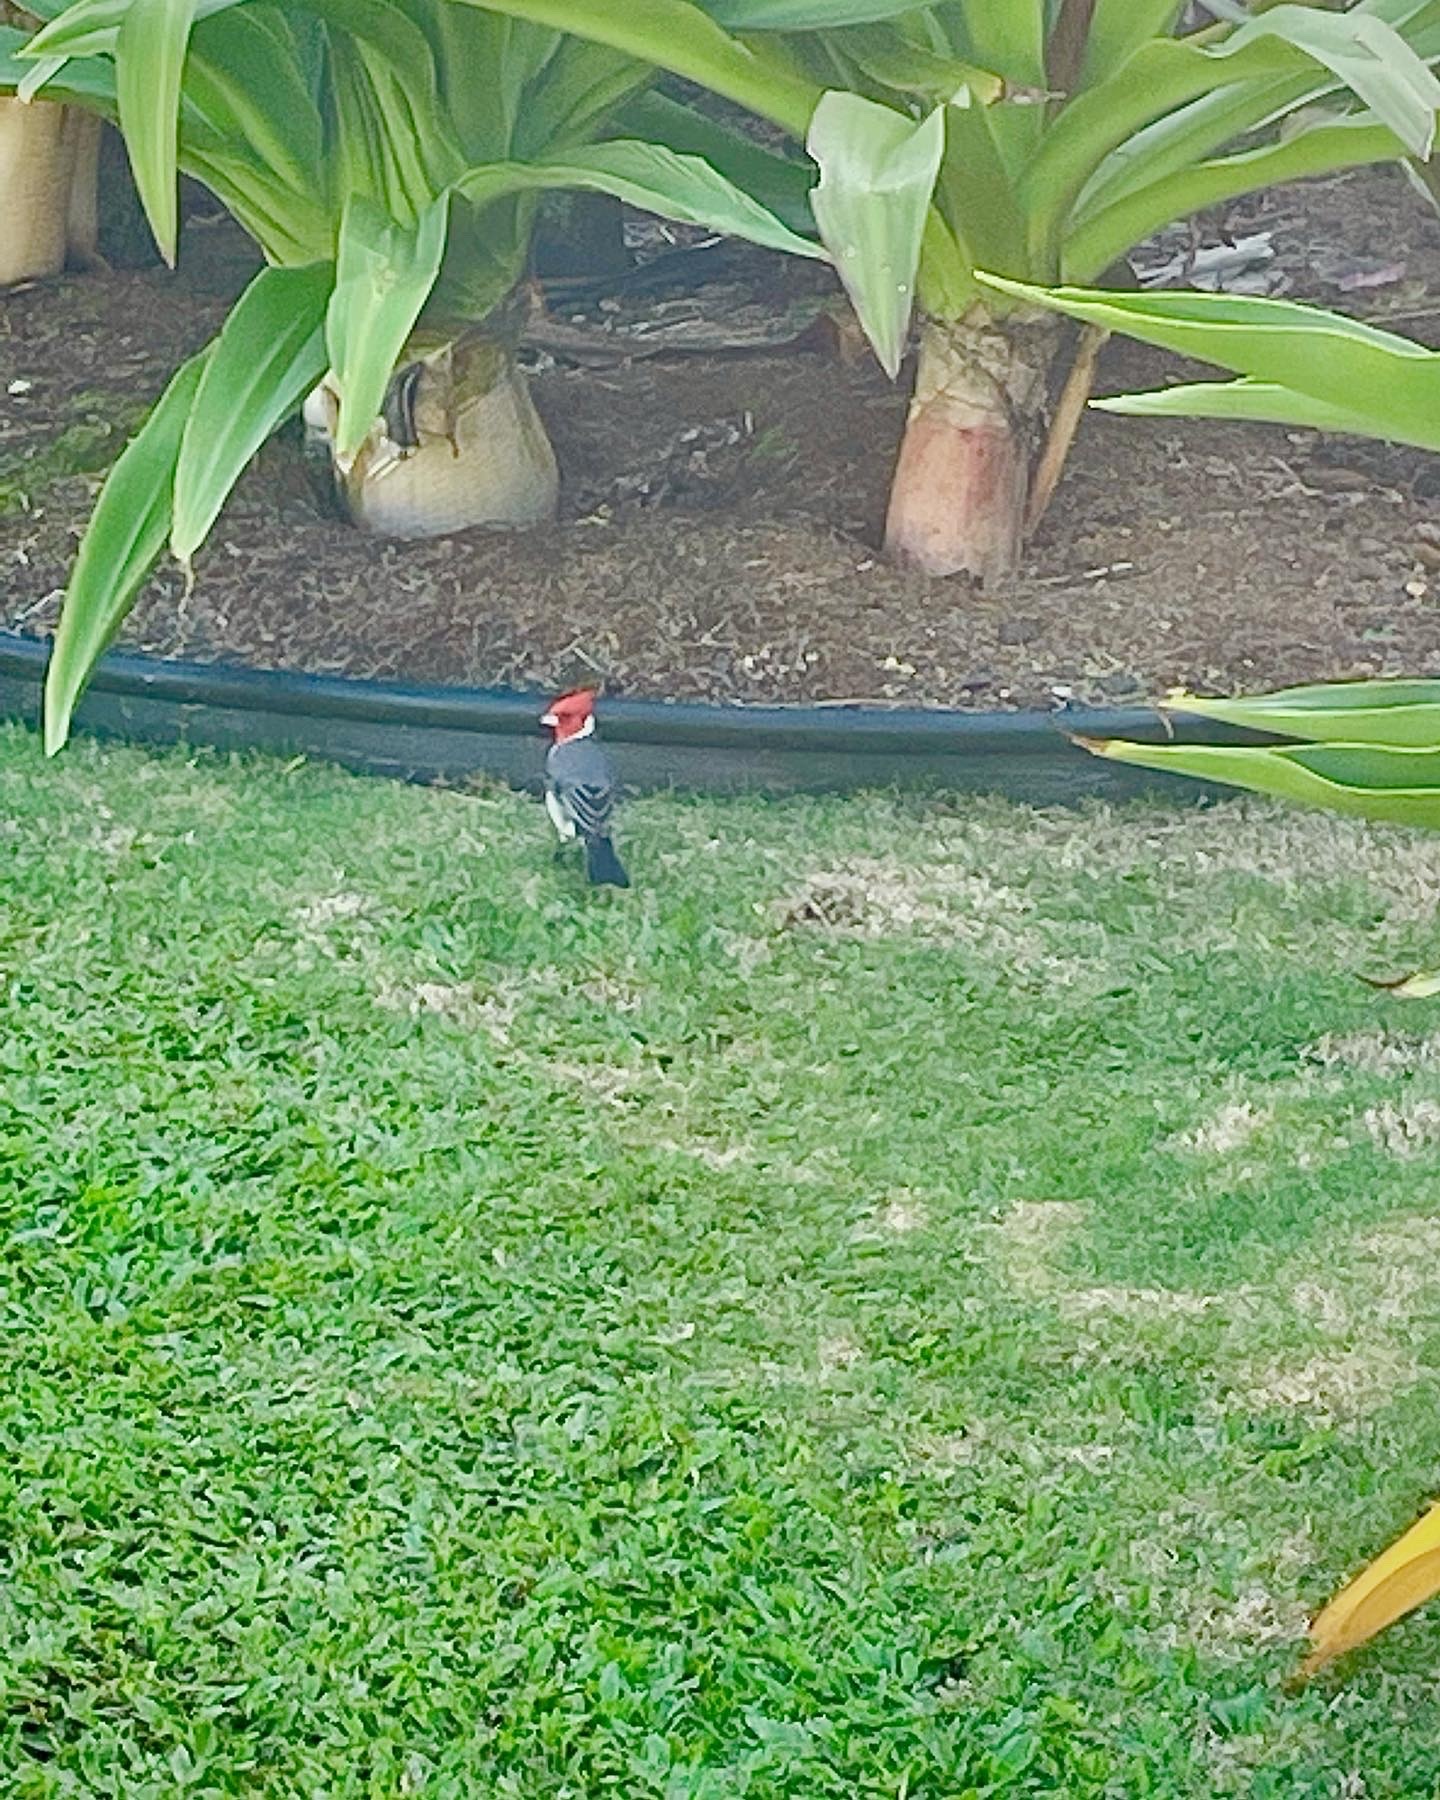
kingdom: Animalia
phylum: Chordata
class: Aves
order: Passeriformes
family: Thraupidae
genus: Paroaria
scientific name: Paroaria coronata
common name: Red-crested cardinal
